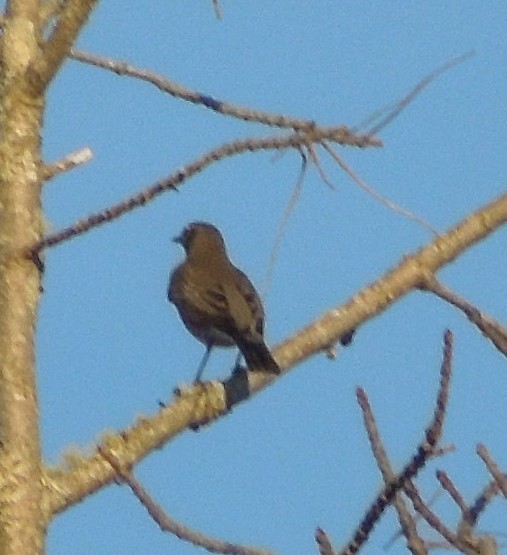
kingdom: Animalia
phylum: Chordata
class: Aves
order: Passeriformes
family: Turdidae
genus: Turdus
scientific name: Turdus migratorius
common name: American robin
